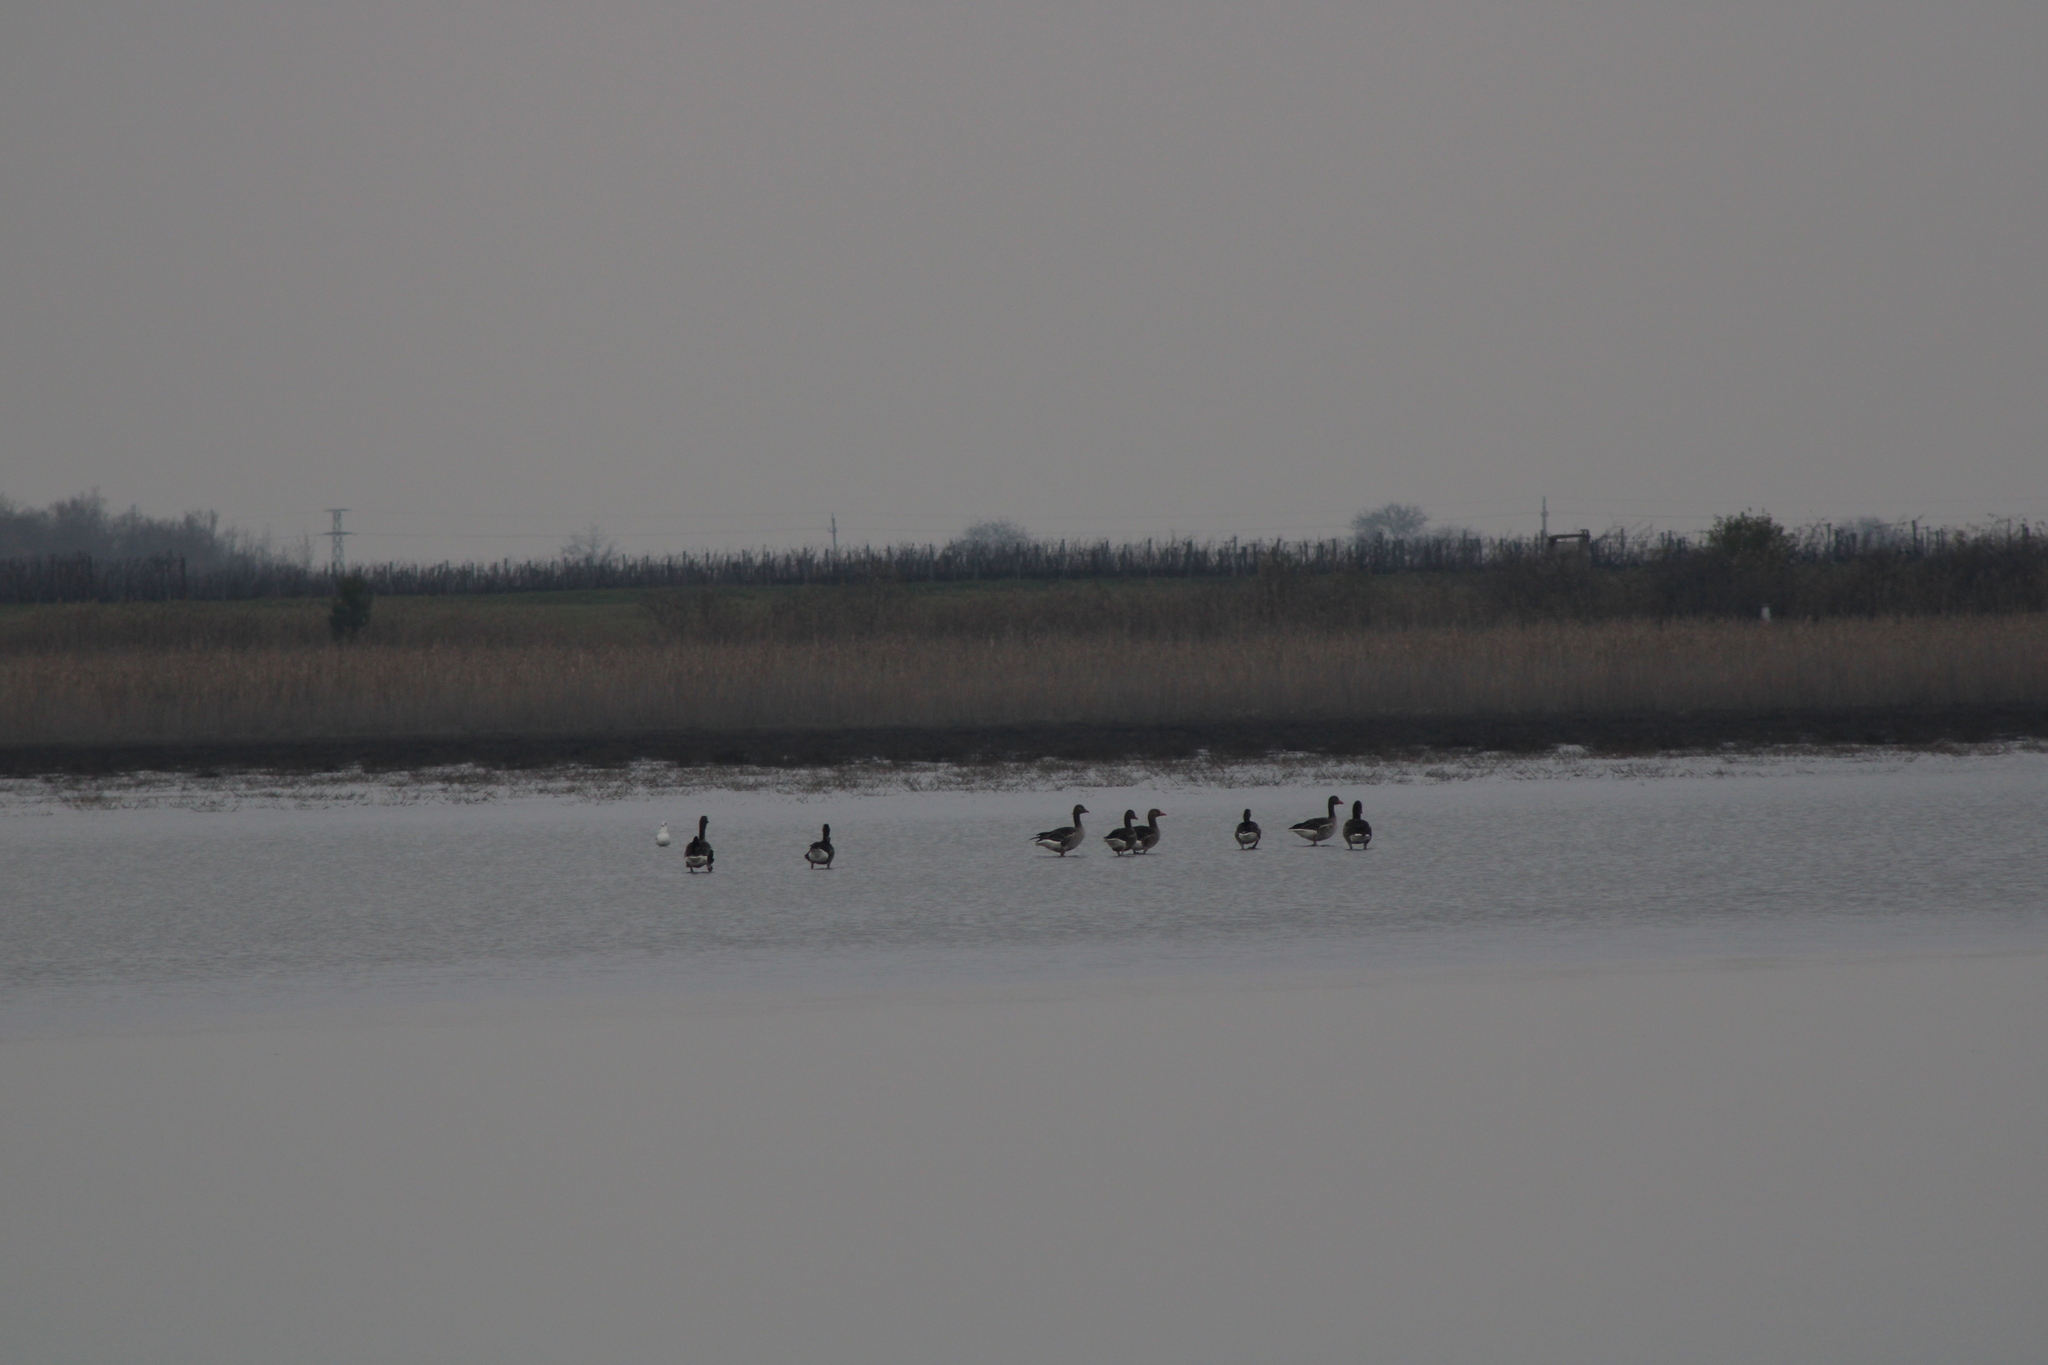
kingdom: Animalia
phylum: Chordata
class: Aves
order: Anseriformes
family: Anatidae
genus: Anser
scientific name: Anser anser
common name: Greylag goose
